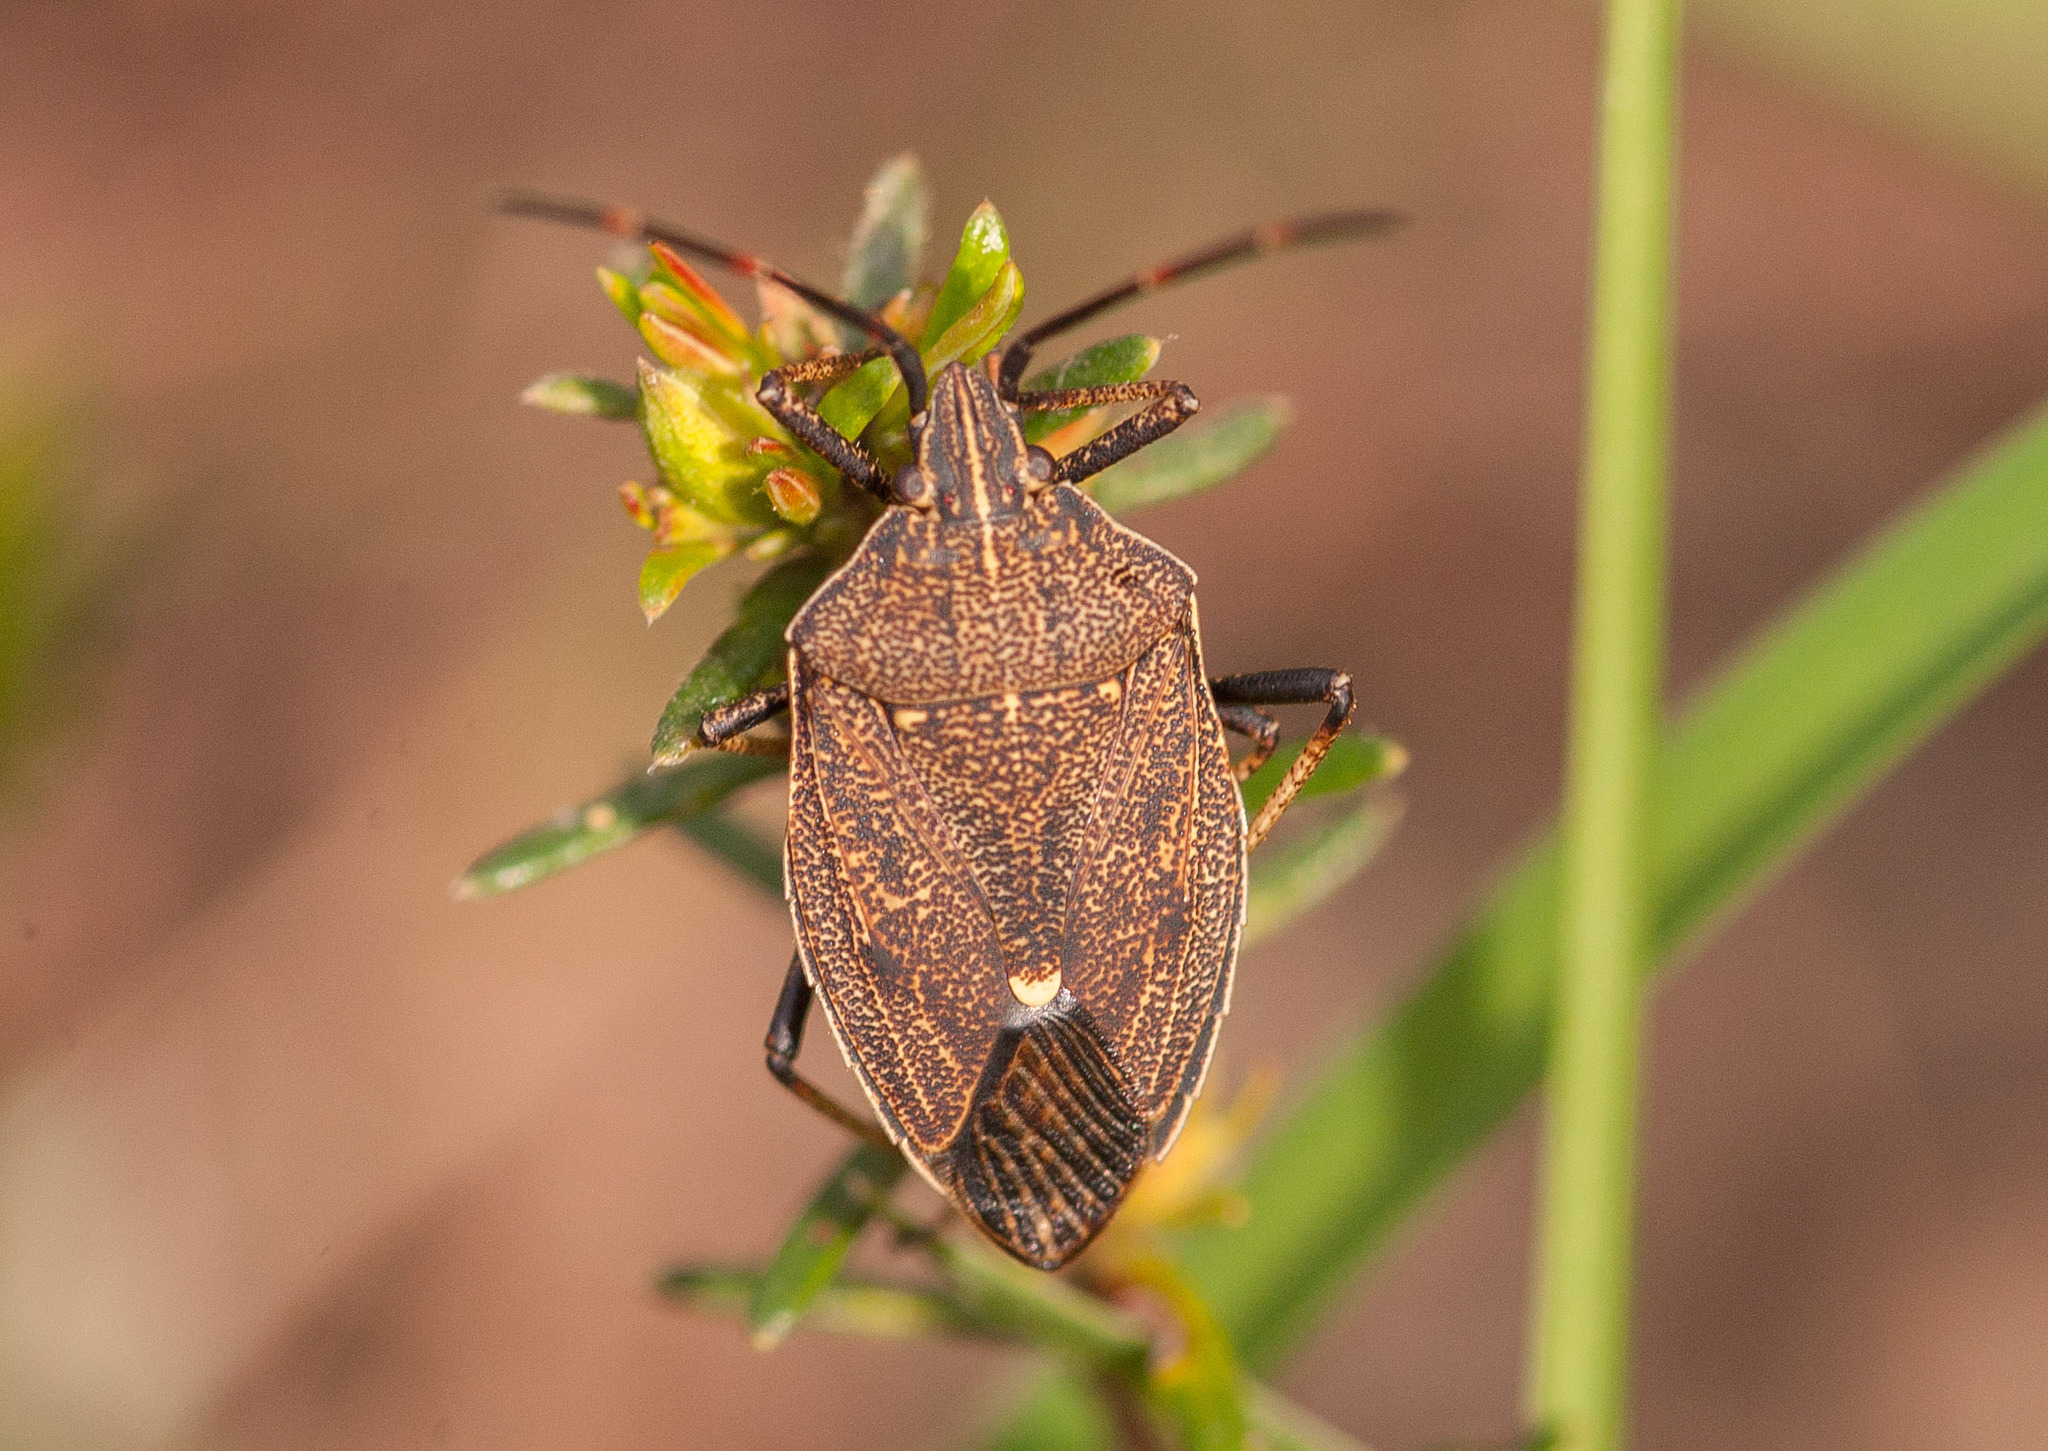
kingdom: Animalia
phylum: Arthropoda
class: Insecta
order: Hemiptera
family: Pentatomidae
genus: Poecilometis
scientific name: Poecilometis
